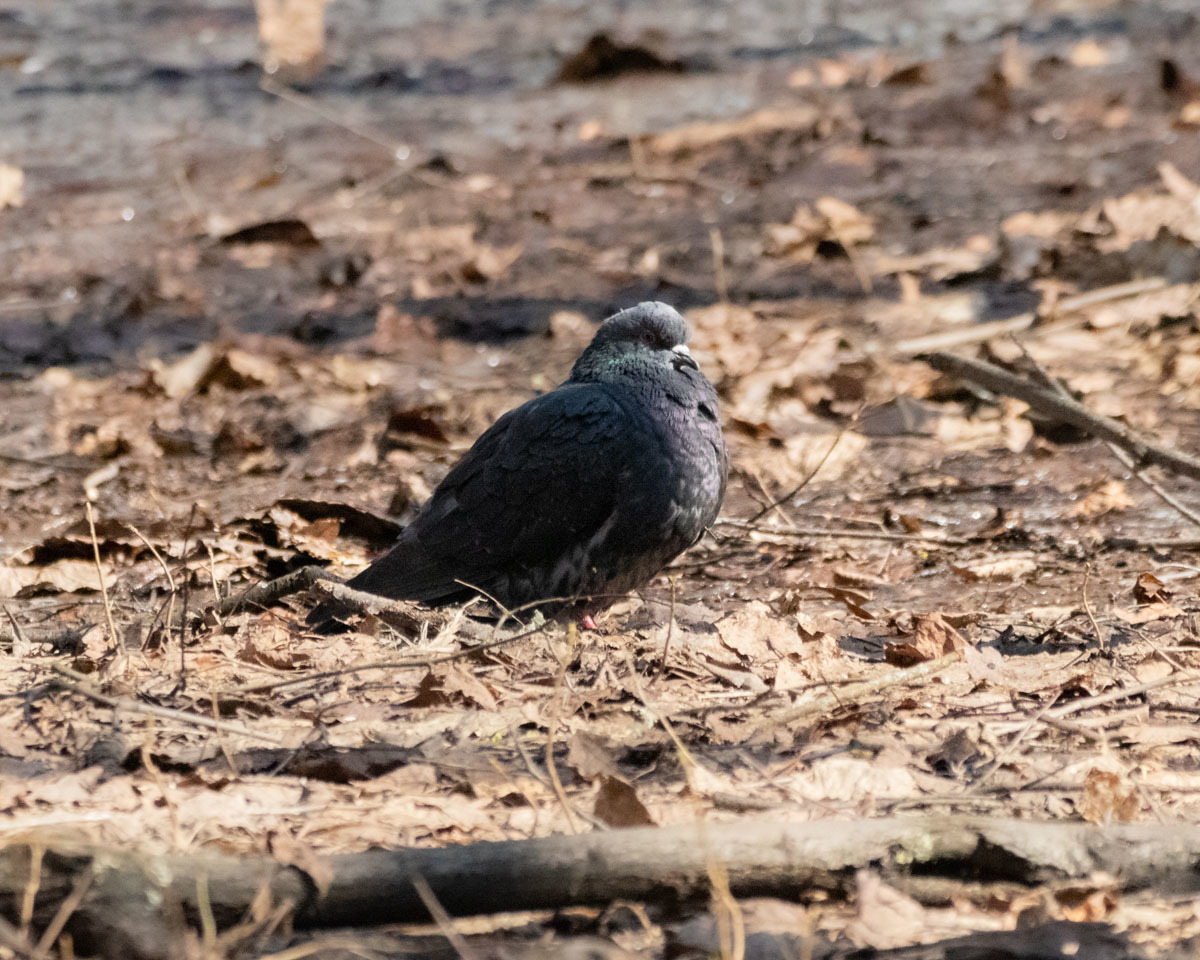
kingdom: Animalia
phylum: Chordata
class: Aves
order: Columbiformes
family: Columbidae
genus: Columba
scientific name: Columba livia
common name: Rock pigeon
